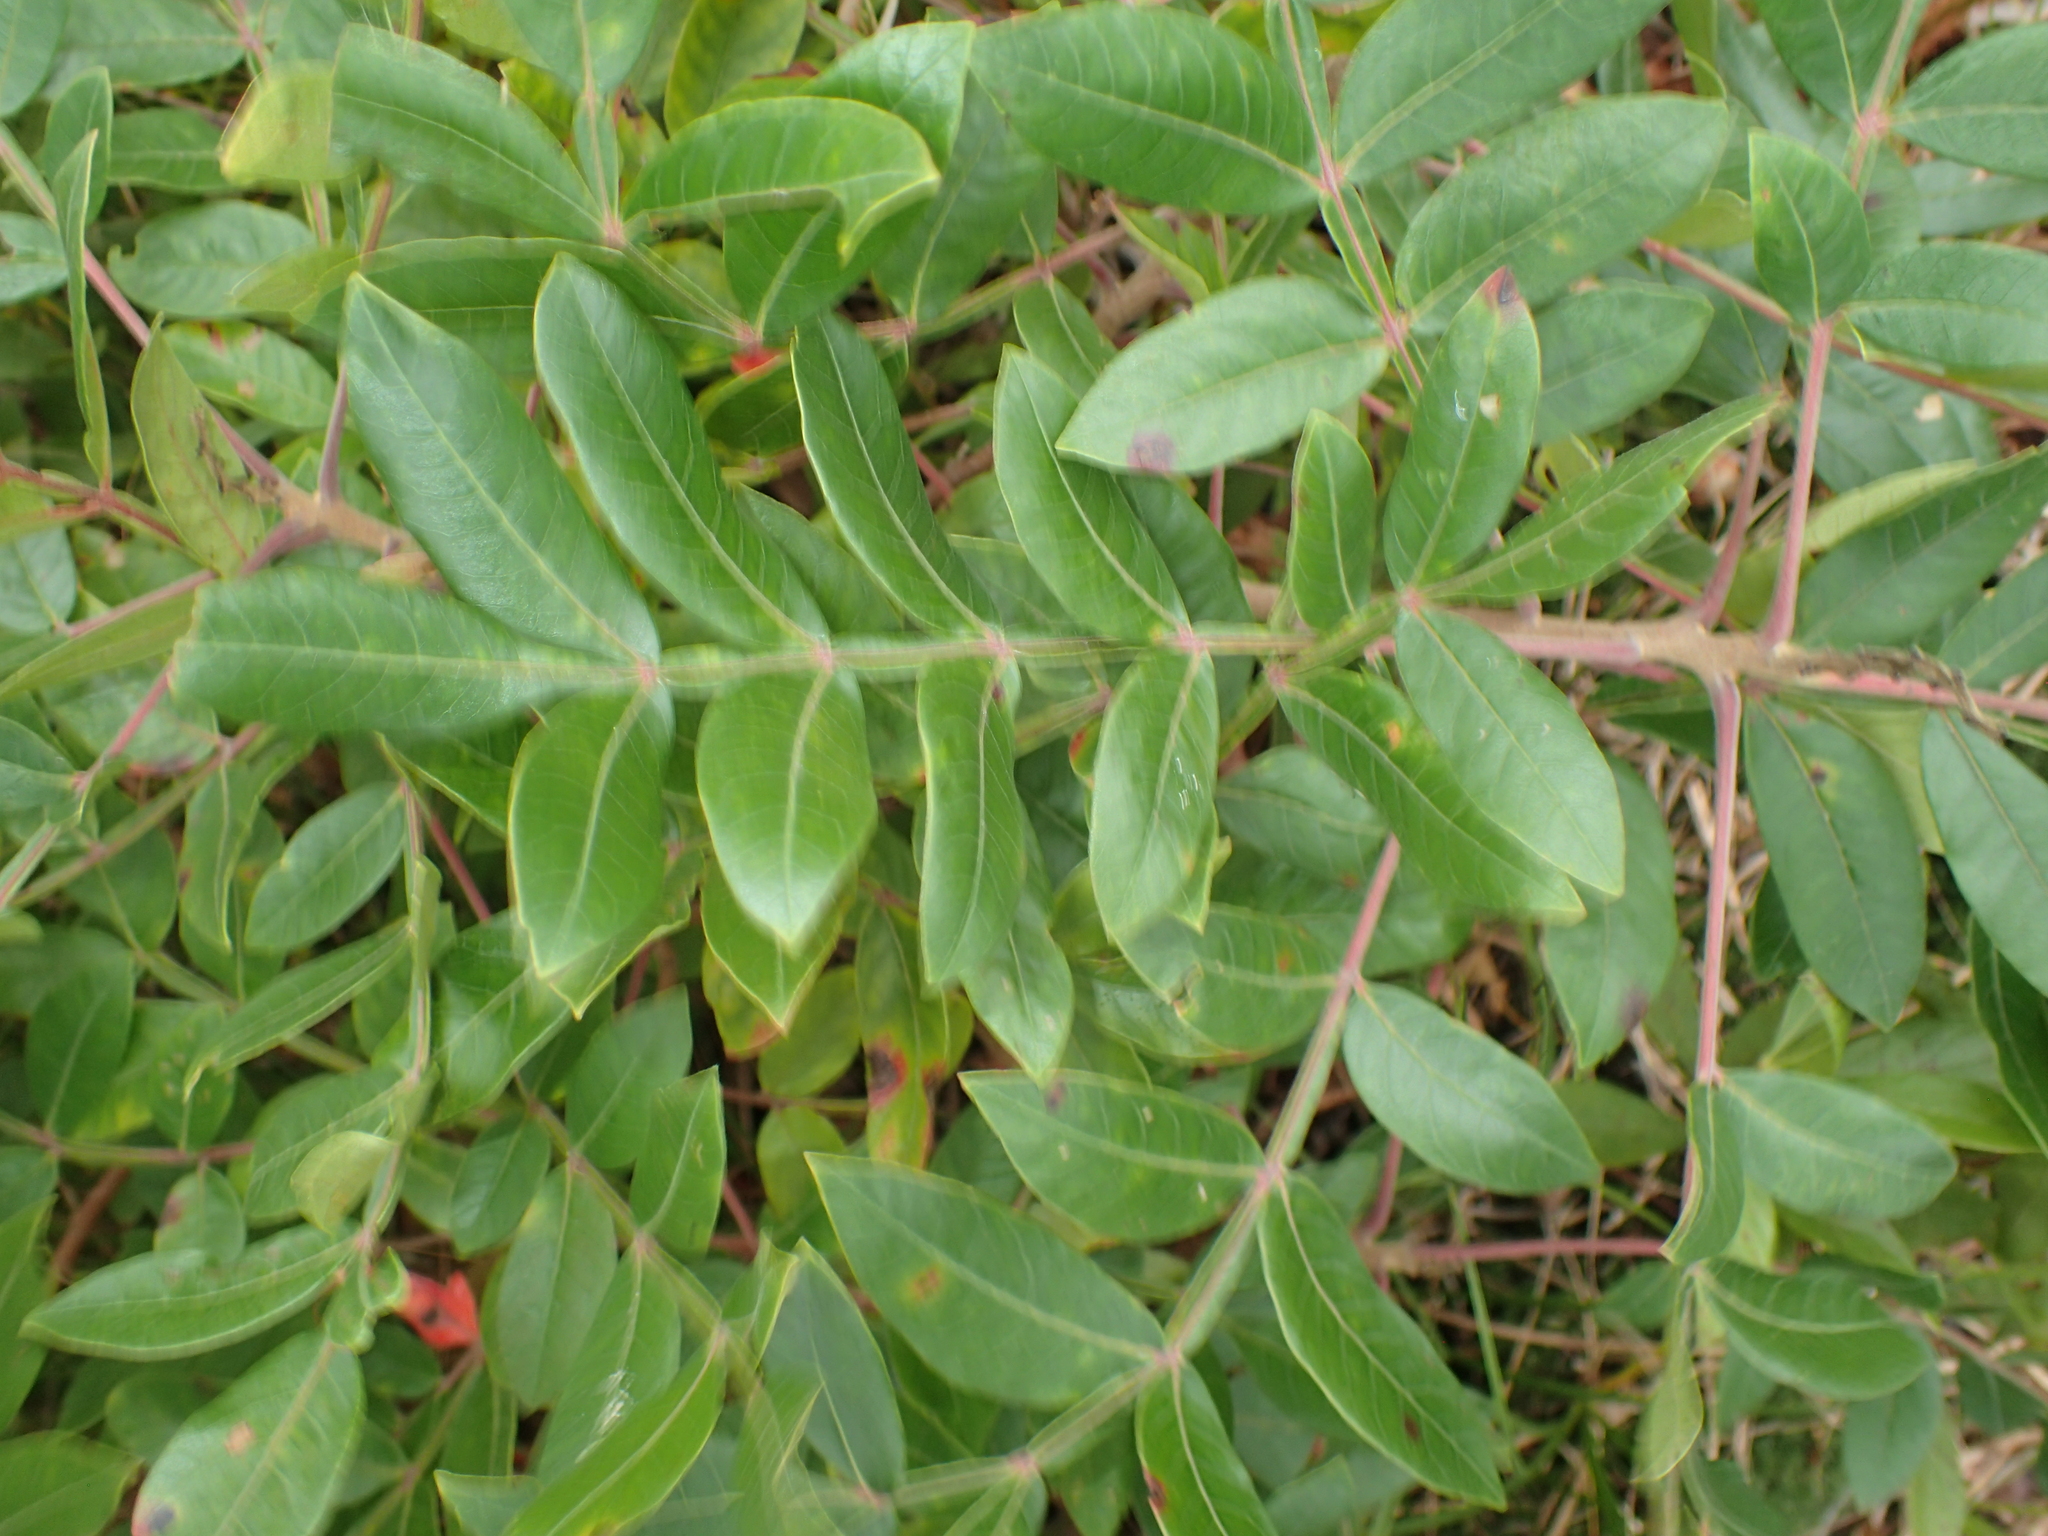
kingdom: Plantae
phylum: Tracheophyta
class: Magnoliopsida
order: Sapindales
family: Anacardiaceae
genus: Rhus
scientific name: Rhus copallina
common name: Shining sumac
